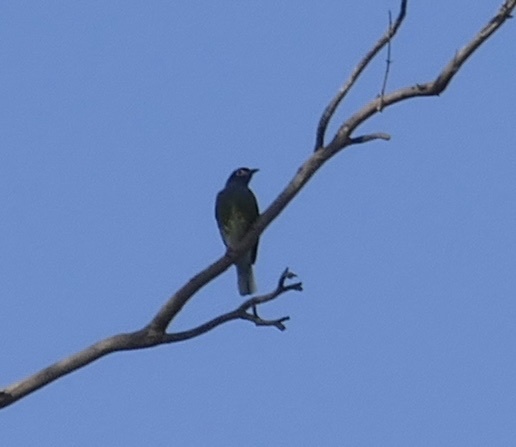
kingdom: Animalia
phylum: Chordata
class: Aves
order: Passeriformes
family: Oriolidae
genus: Sphecotheres
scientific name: Sphecotheres vieilloti
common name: Australasian figbird
